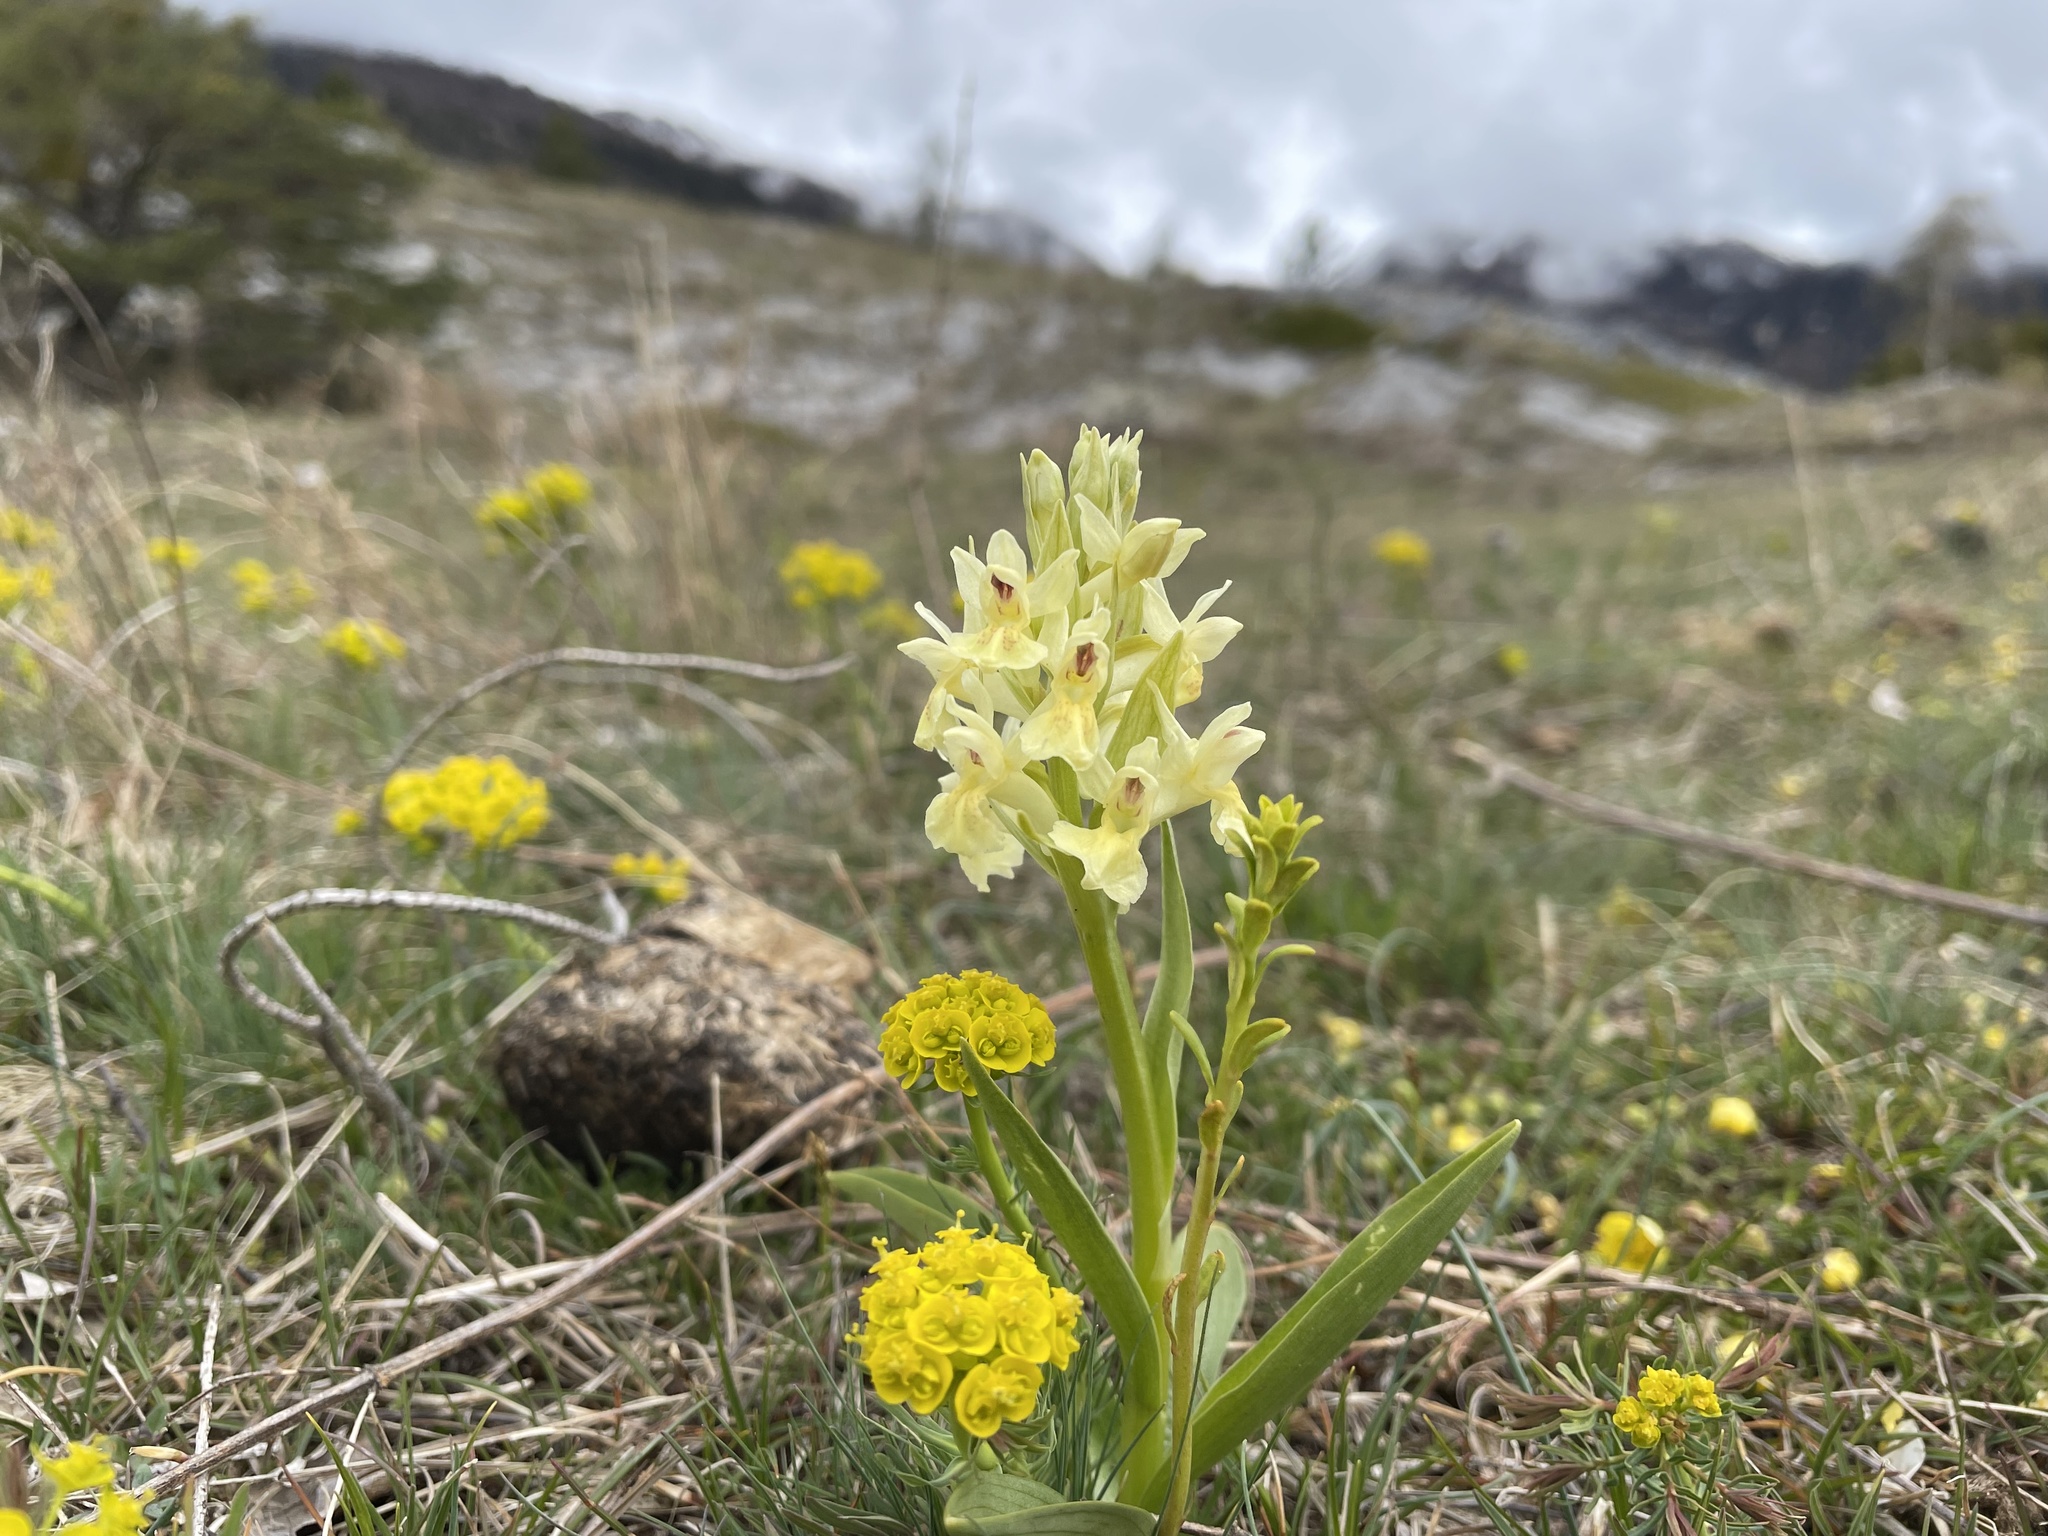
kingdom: Plantae
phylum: Tracheophyta
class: Liliopsida
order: Asparagales
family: Orchidaceae
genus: Dactylorhiza
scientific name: Dactylorhiza sambucina
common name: Elder-flowered orchid
